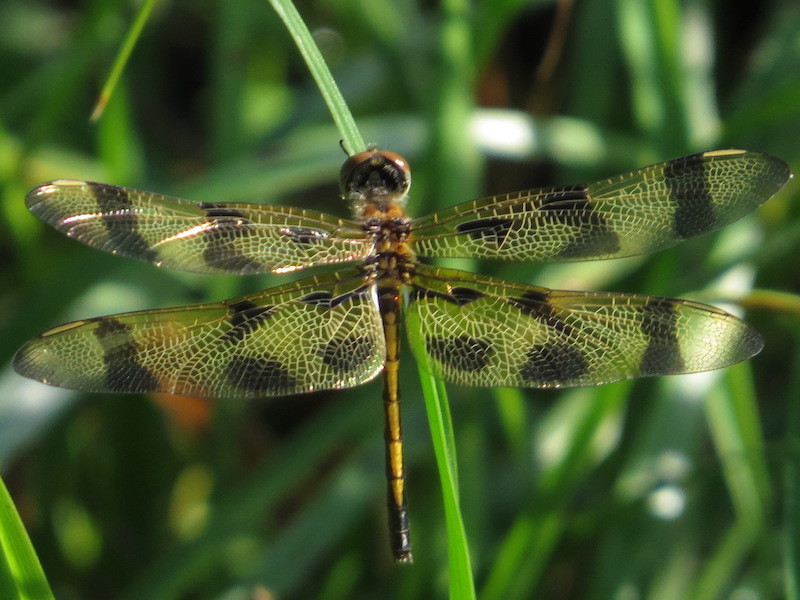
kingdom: Animalia
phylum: Arthropoda
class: Insecta
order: Odonata
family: Libellulidae
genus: Celithemis
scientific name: Celithemis eponina
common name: Halloween pennant
